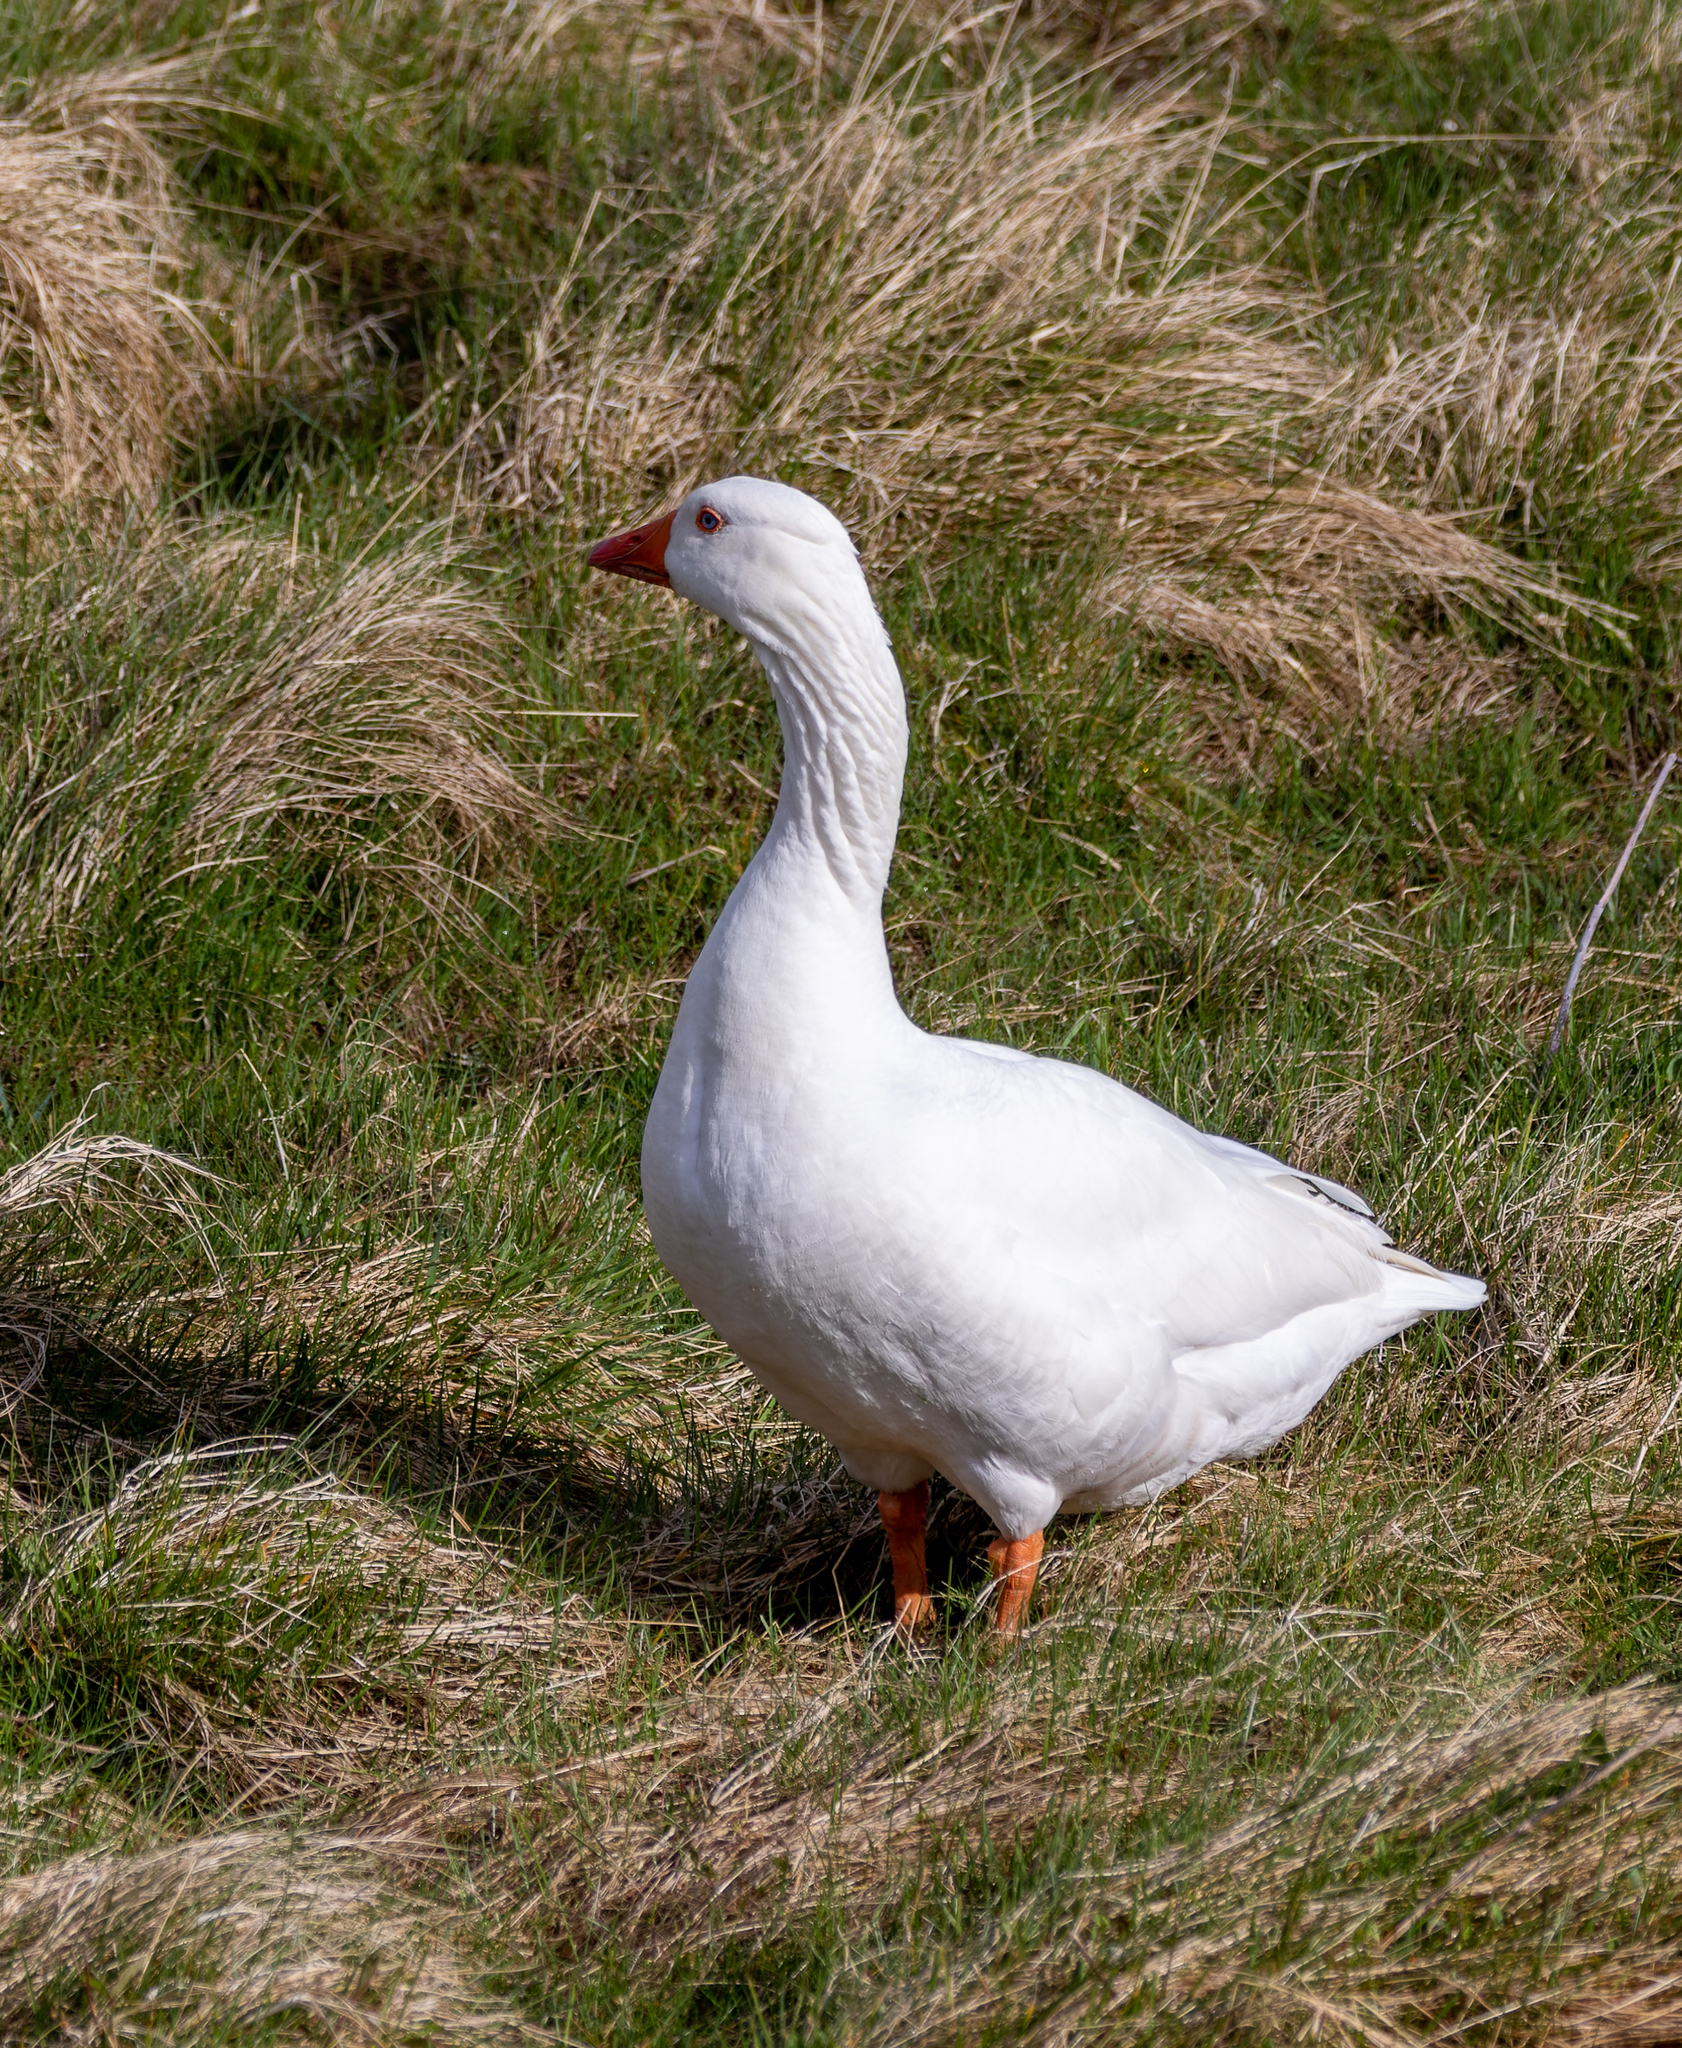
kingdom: Animalia
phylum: Chordata
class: Aves
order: Anseriformes
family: Anatidae
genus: Anser
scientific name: Anser anser
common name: Greylag goose
